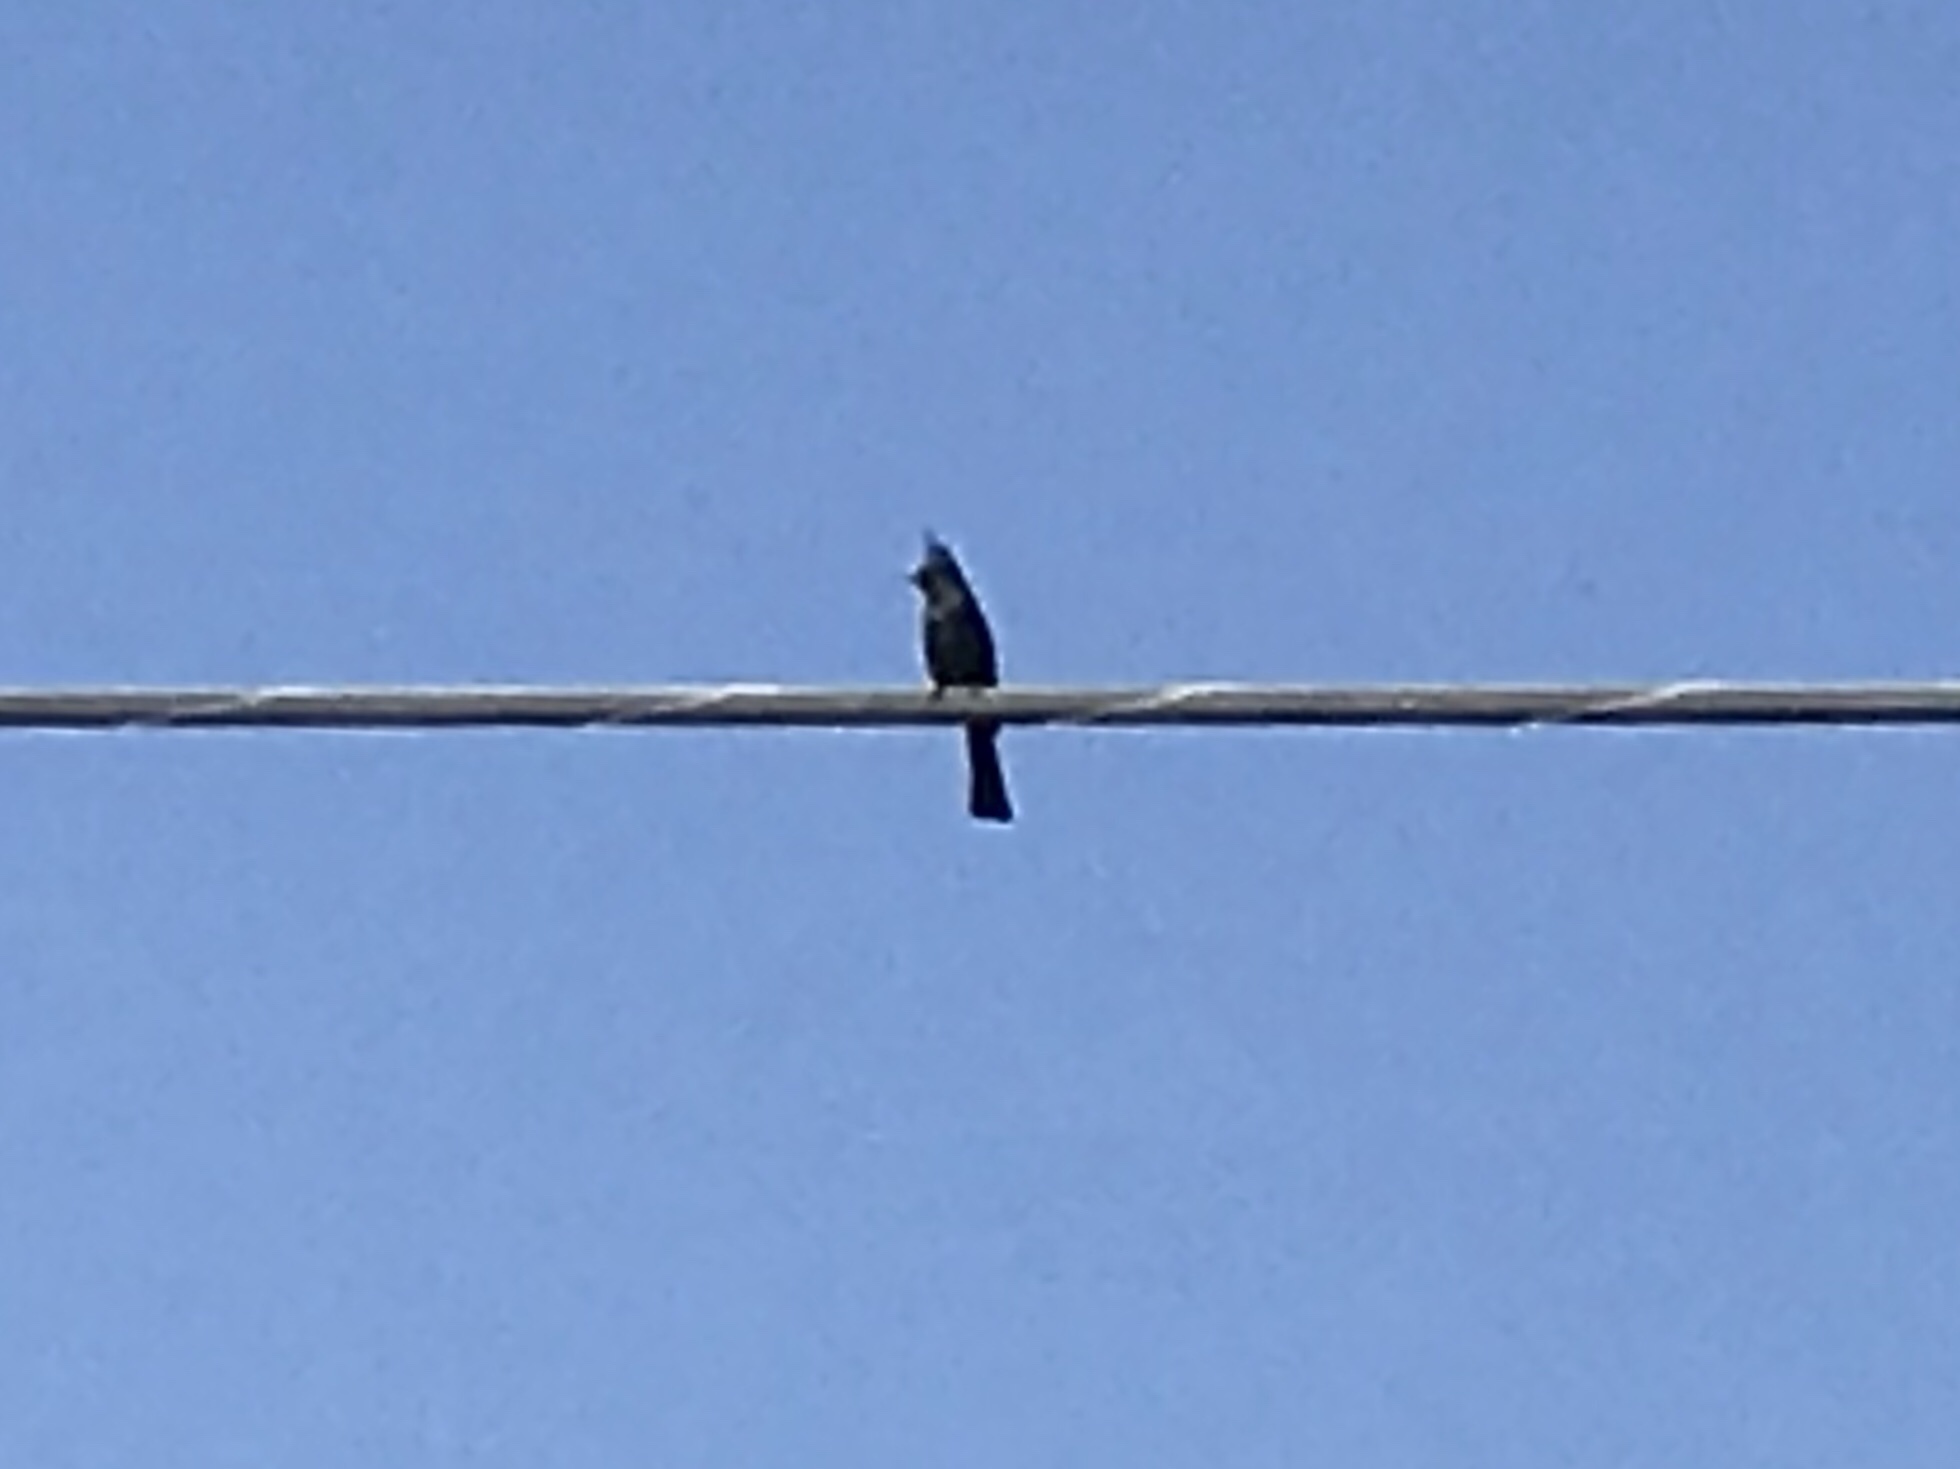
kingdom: Animalia
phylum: Chordata
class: Aves
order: Passeriformes
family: Ptilogonatidae
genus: Phainopepla
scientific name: Phainopepla nitens
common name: Phainopepla
